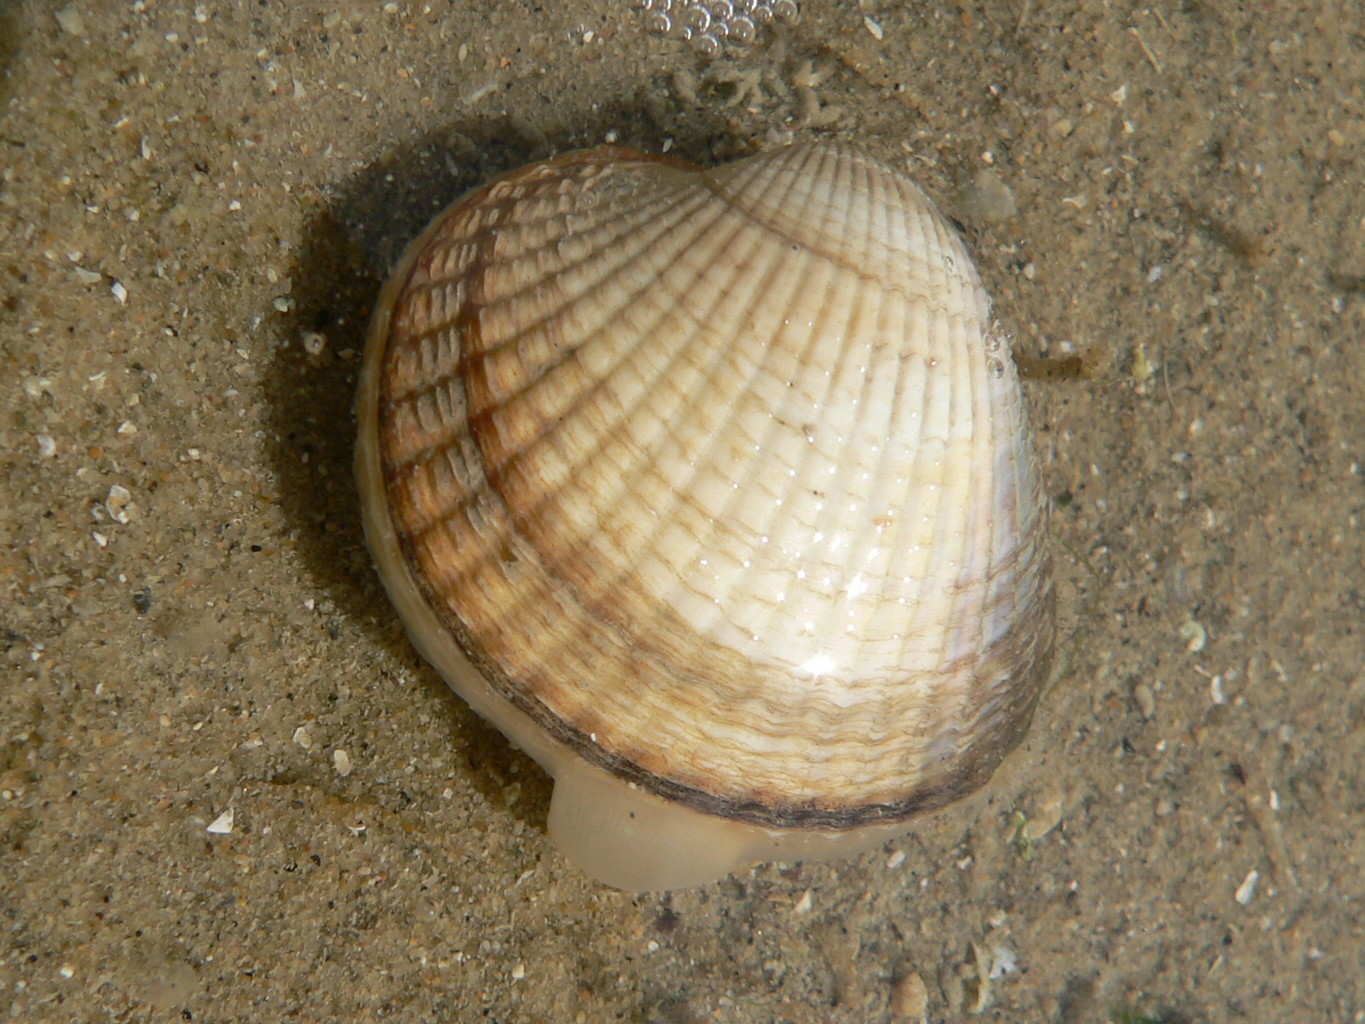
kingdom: Animalia
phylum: Mollusca
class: Bivalvia
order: Cardiida
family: Cardiidae
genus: Cerastoderma
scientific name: Cerastoderma edule
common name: Common cockle
